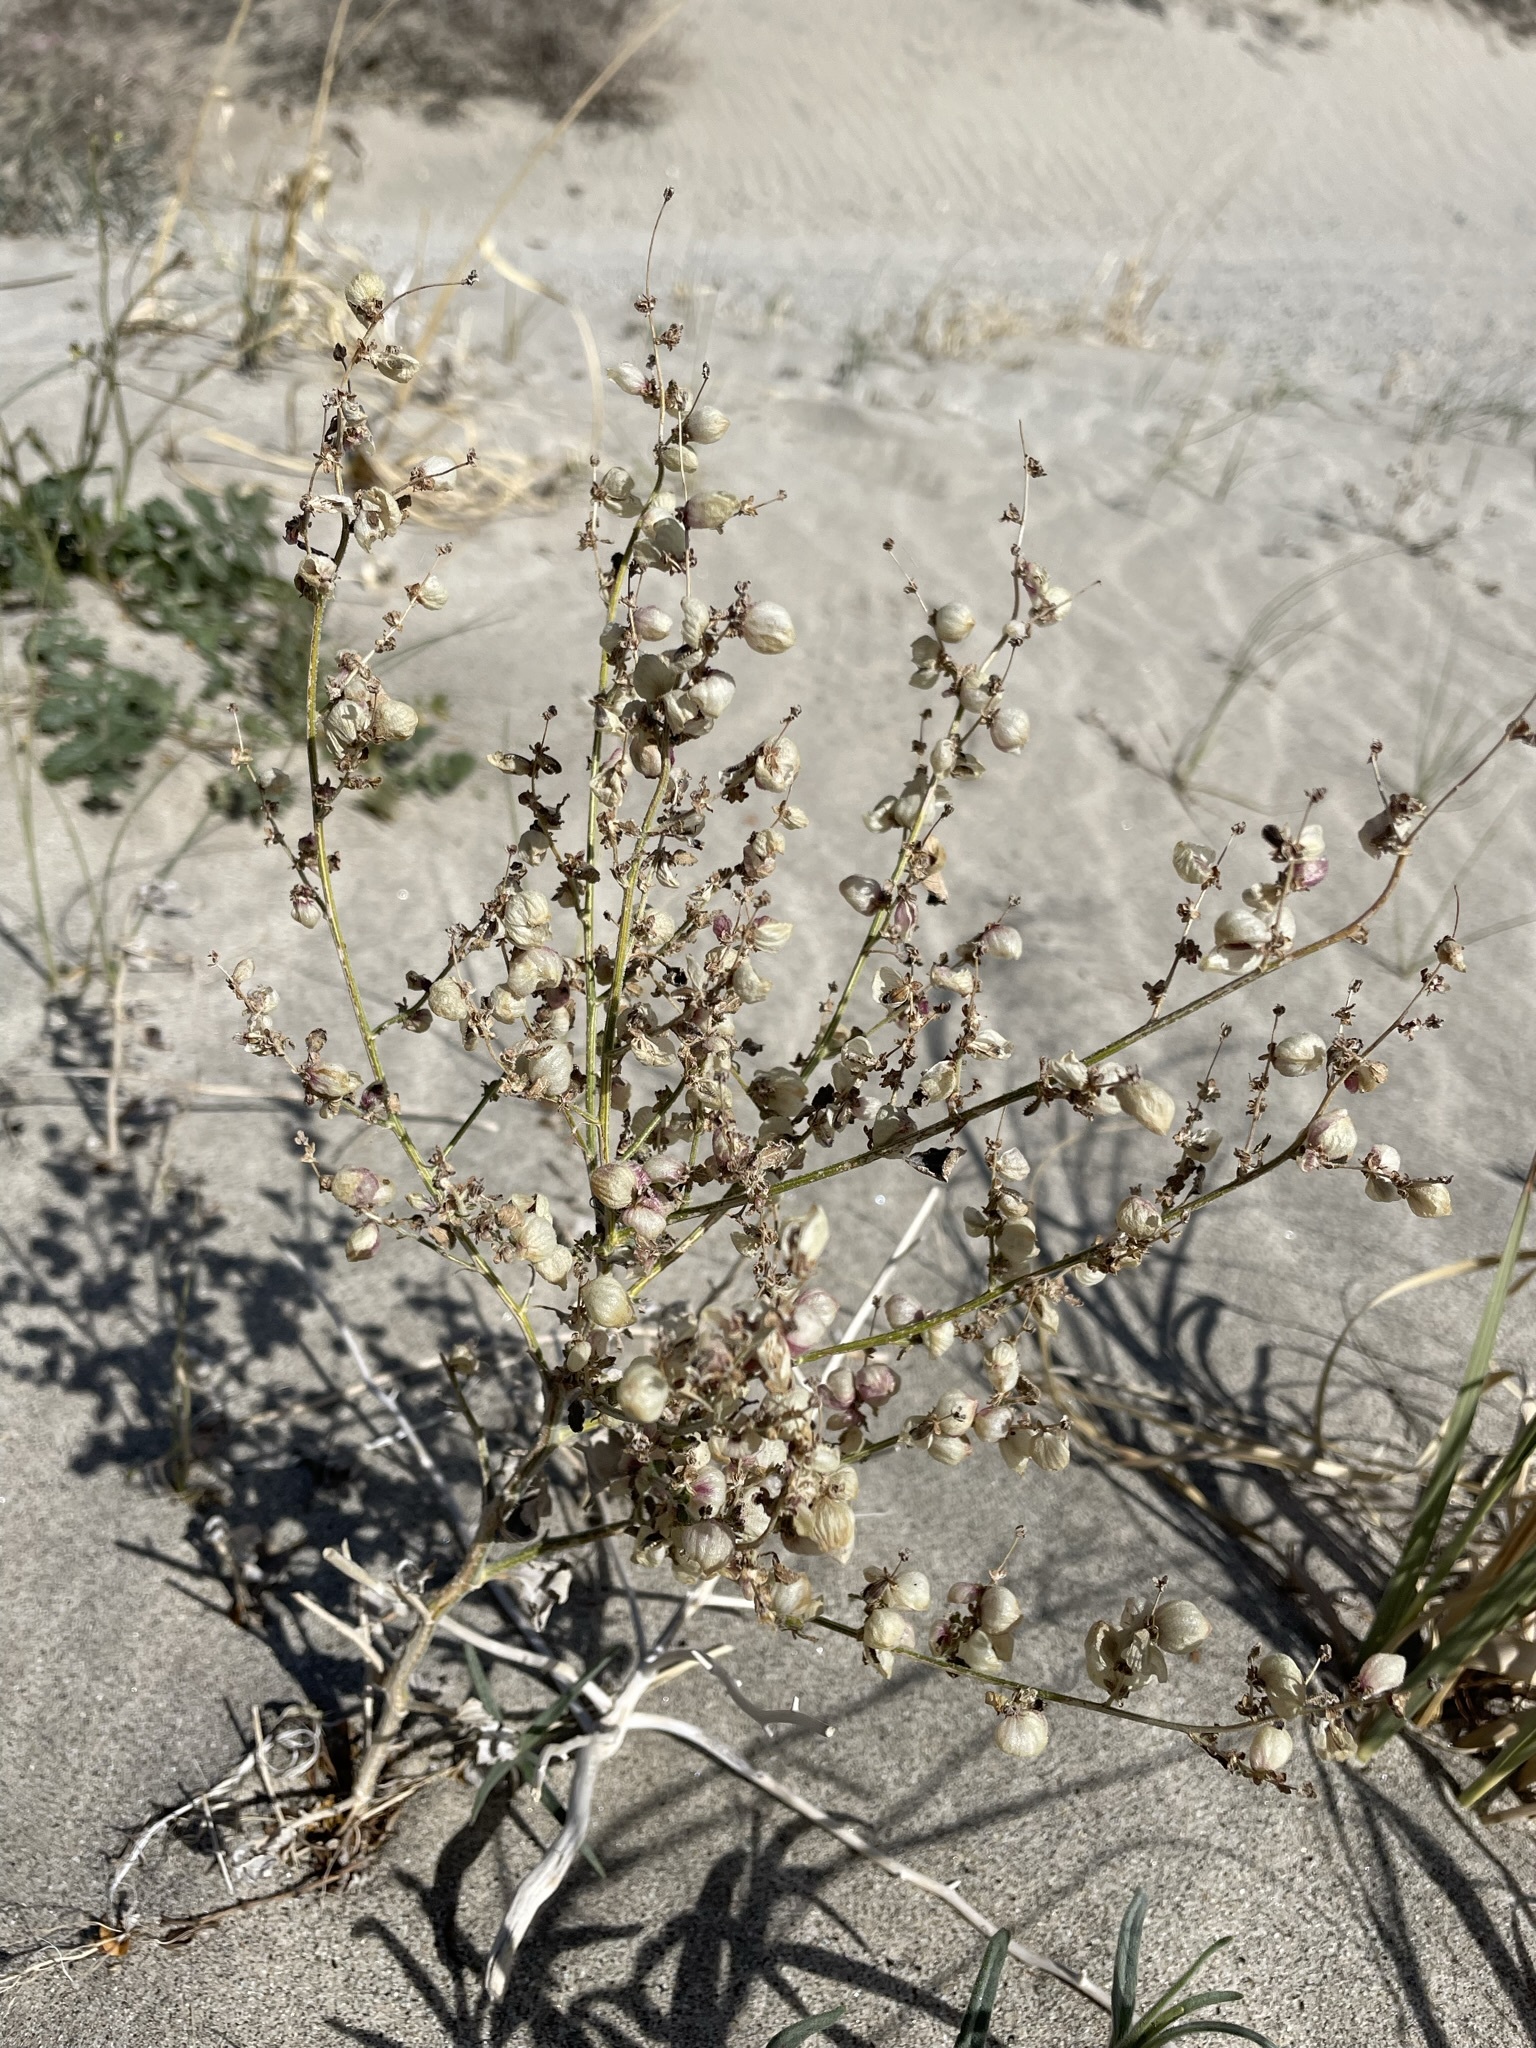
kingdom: Plantae
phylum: Tracheophyta
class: Magnoliopsida
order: Asterales
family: Asteraceae
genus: Dicoria
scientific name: Dicoria canescens
